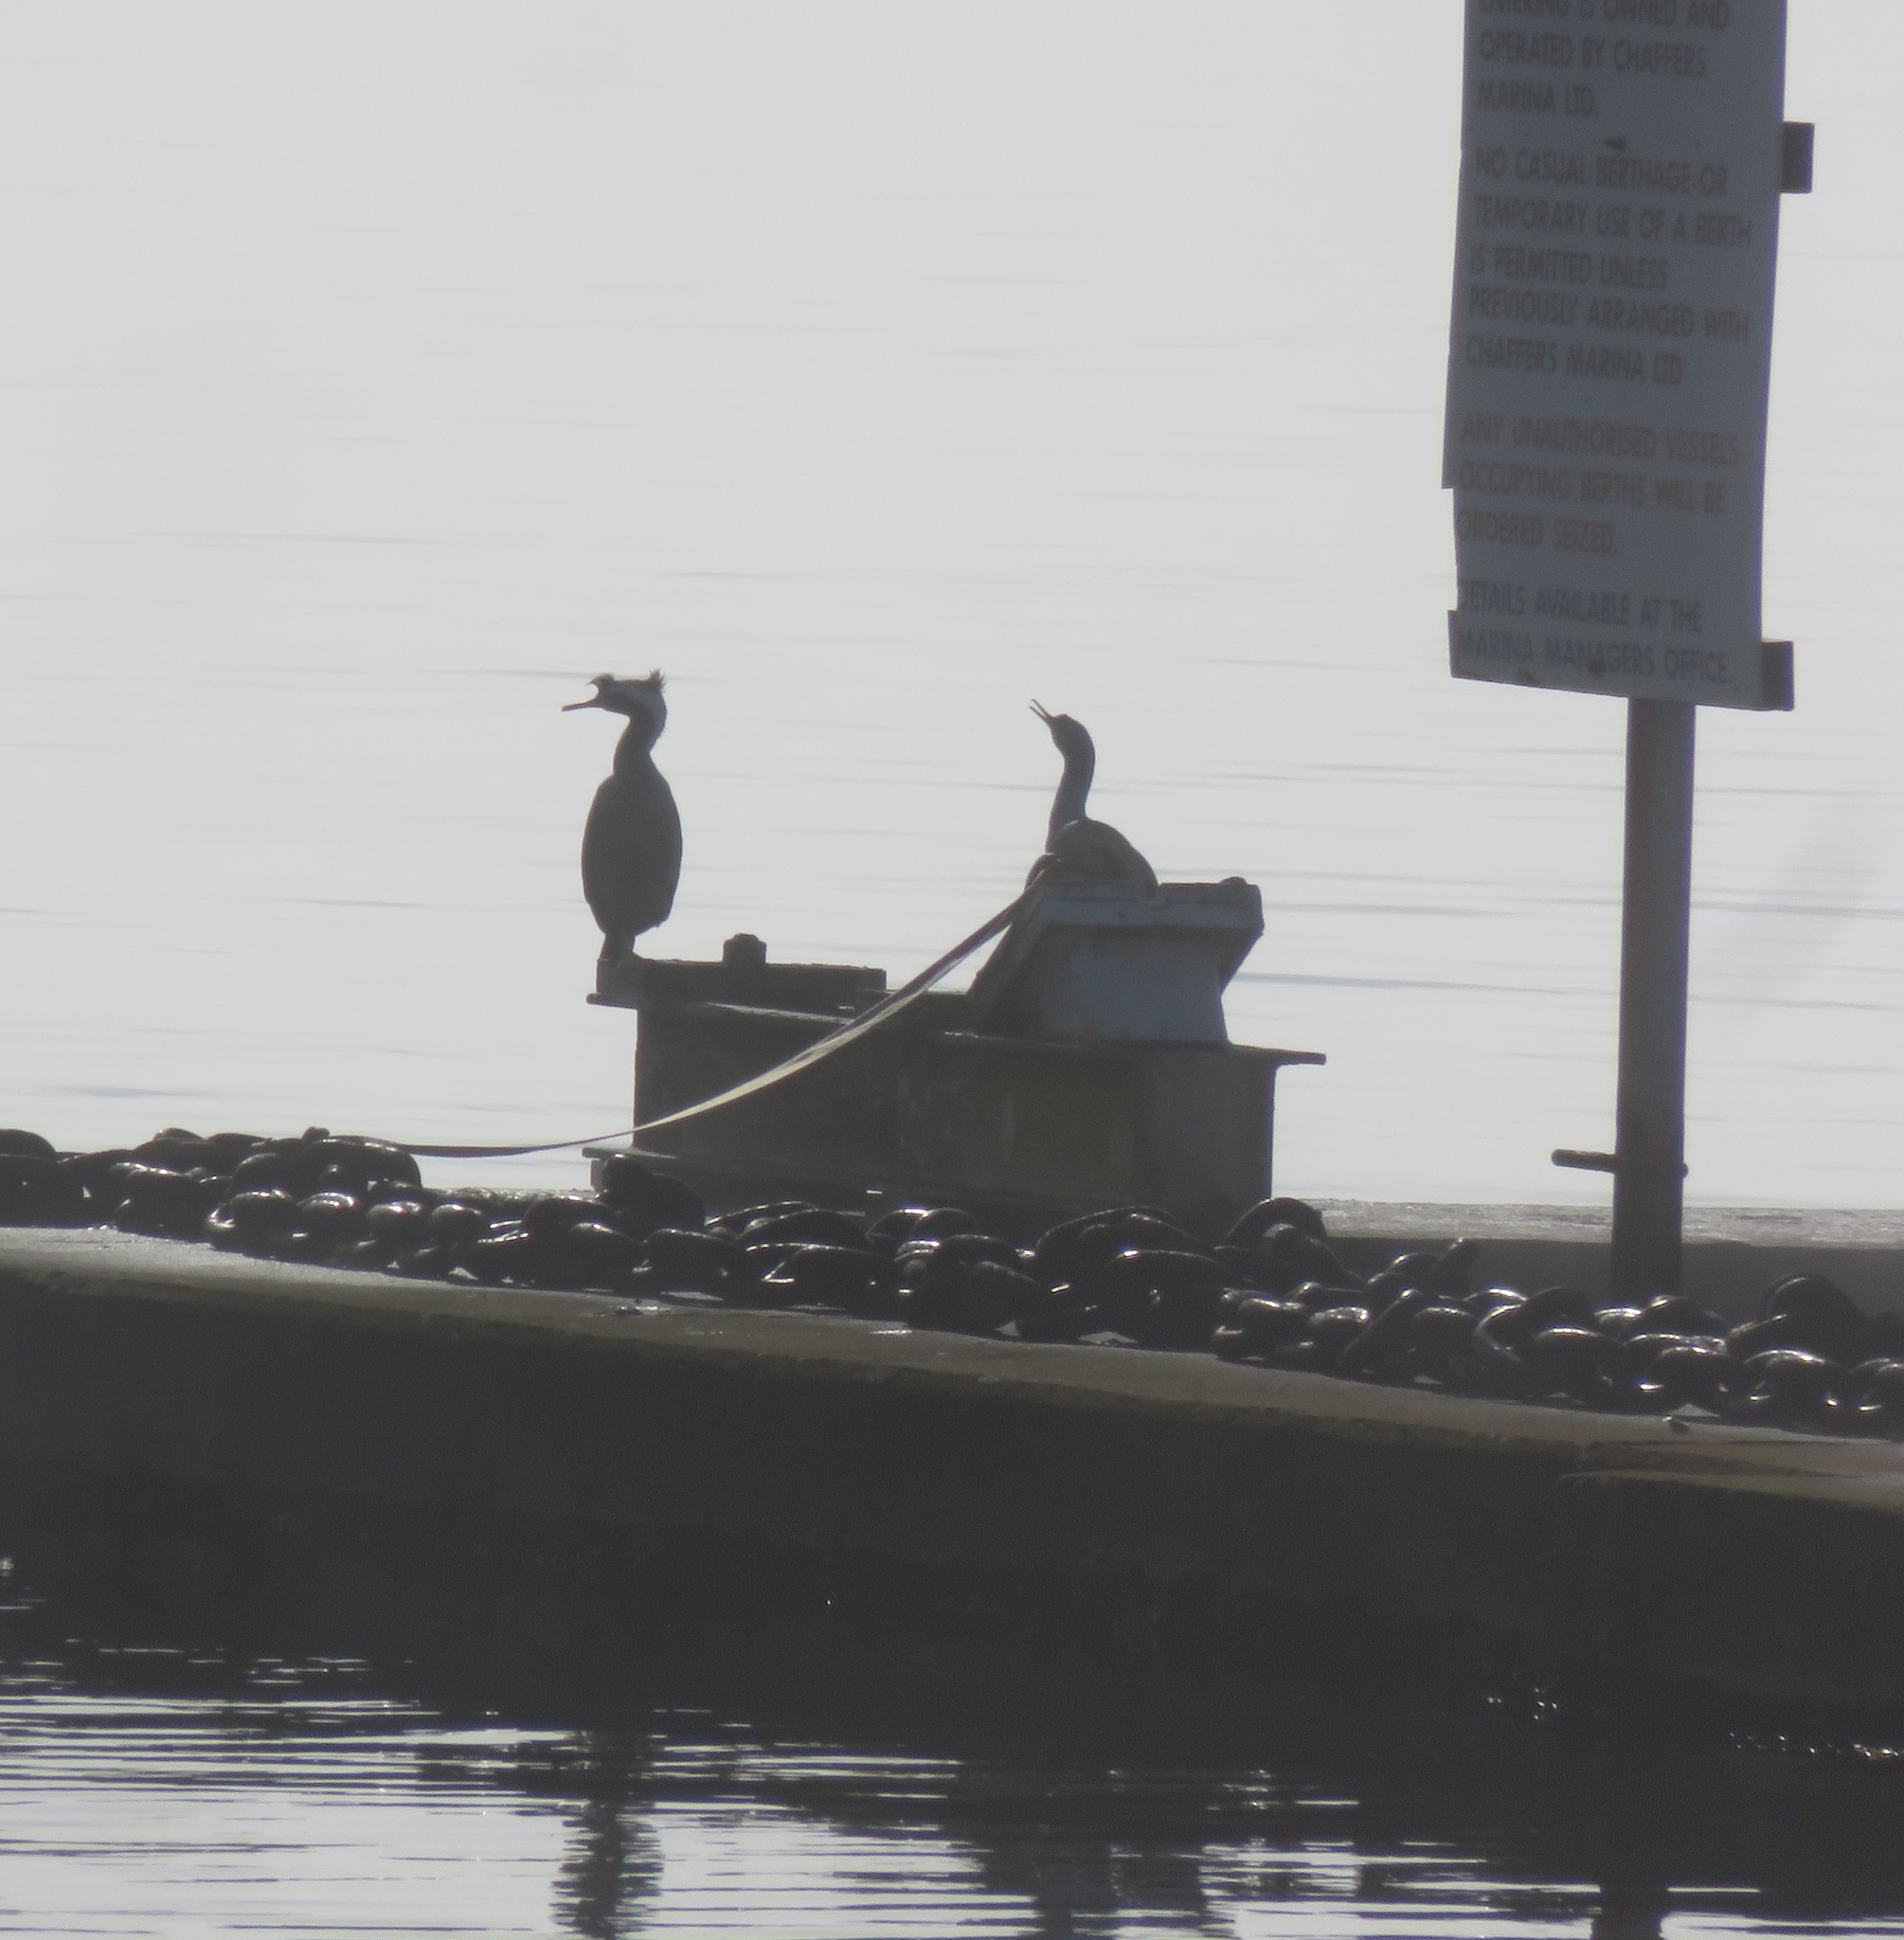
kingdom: Animalia
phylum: Chordata
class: Aves
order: Suliformes
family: Phalacrocoracidae
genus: Phalacrocorax
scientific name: Phalacrocorax punctatus
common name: Spotted shag
